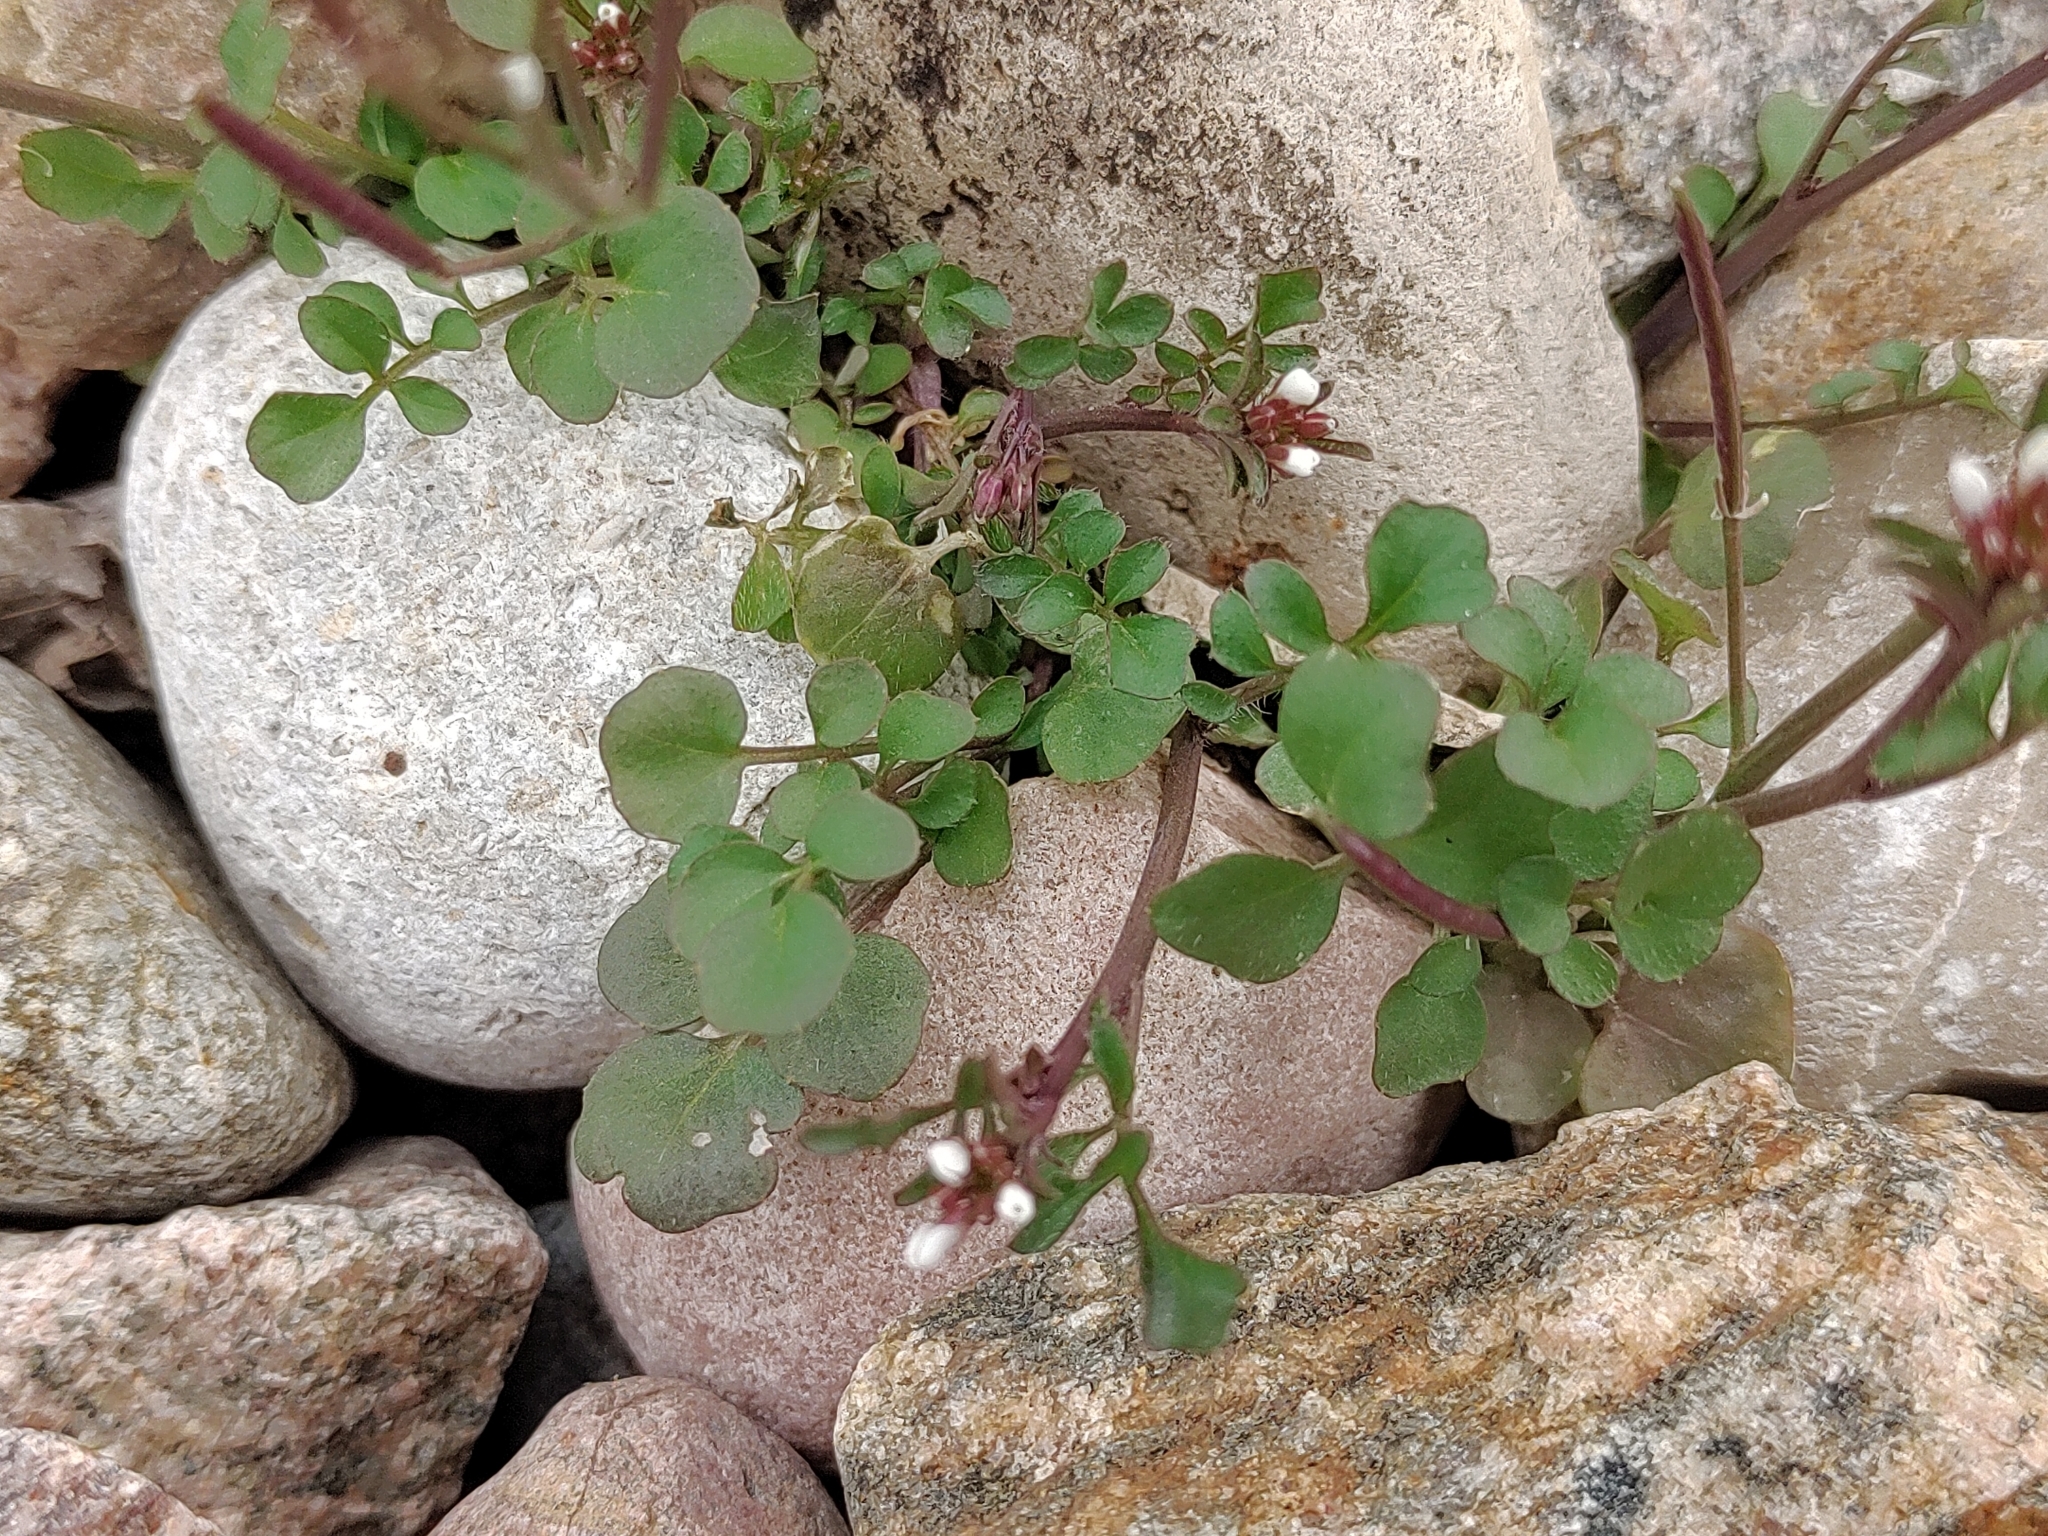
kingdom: Plantae
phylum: Tracheophyta
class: Magnoliopsida
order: Brassicales
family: Brassicaceae
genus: Cardamine
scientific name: Cardamine hirsuta
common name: Hairy bittercress
